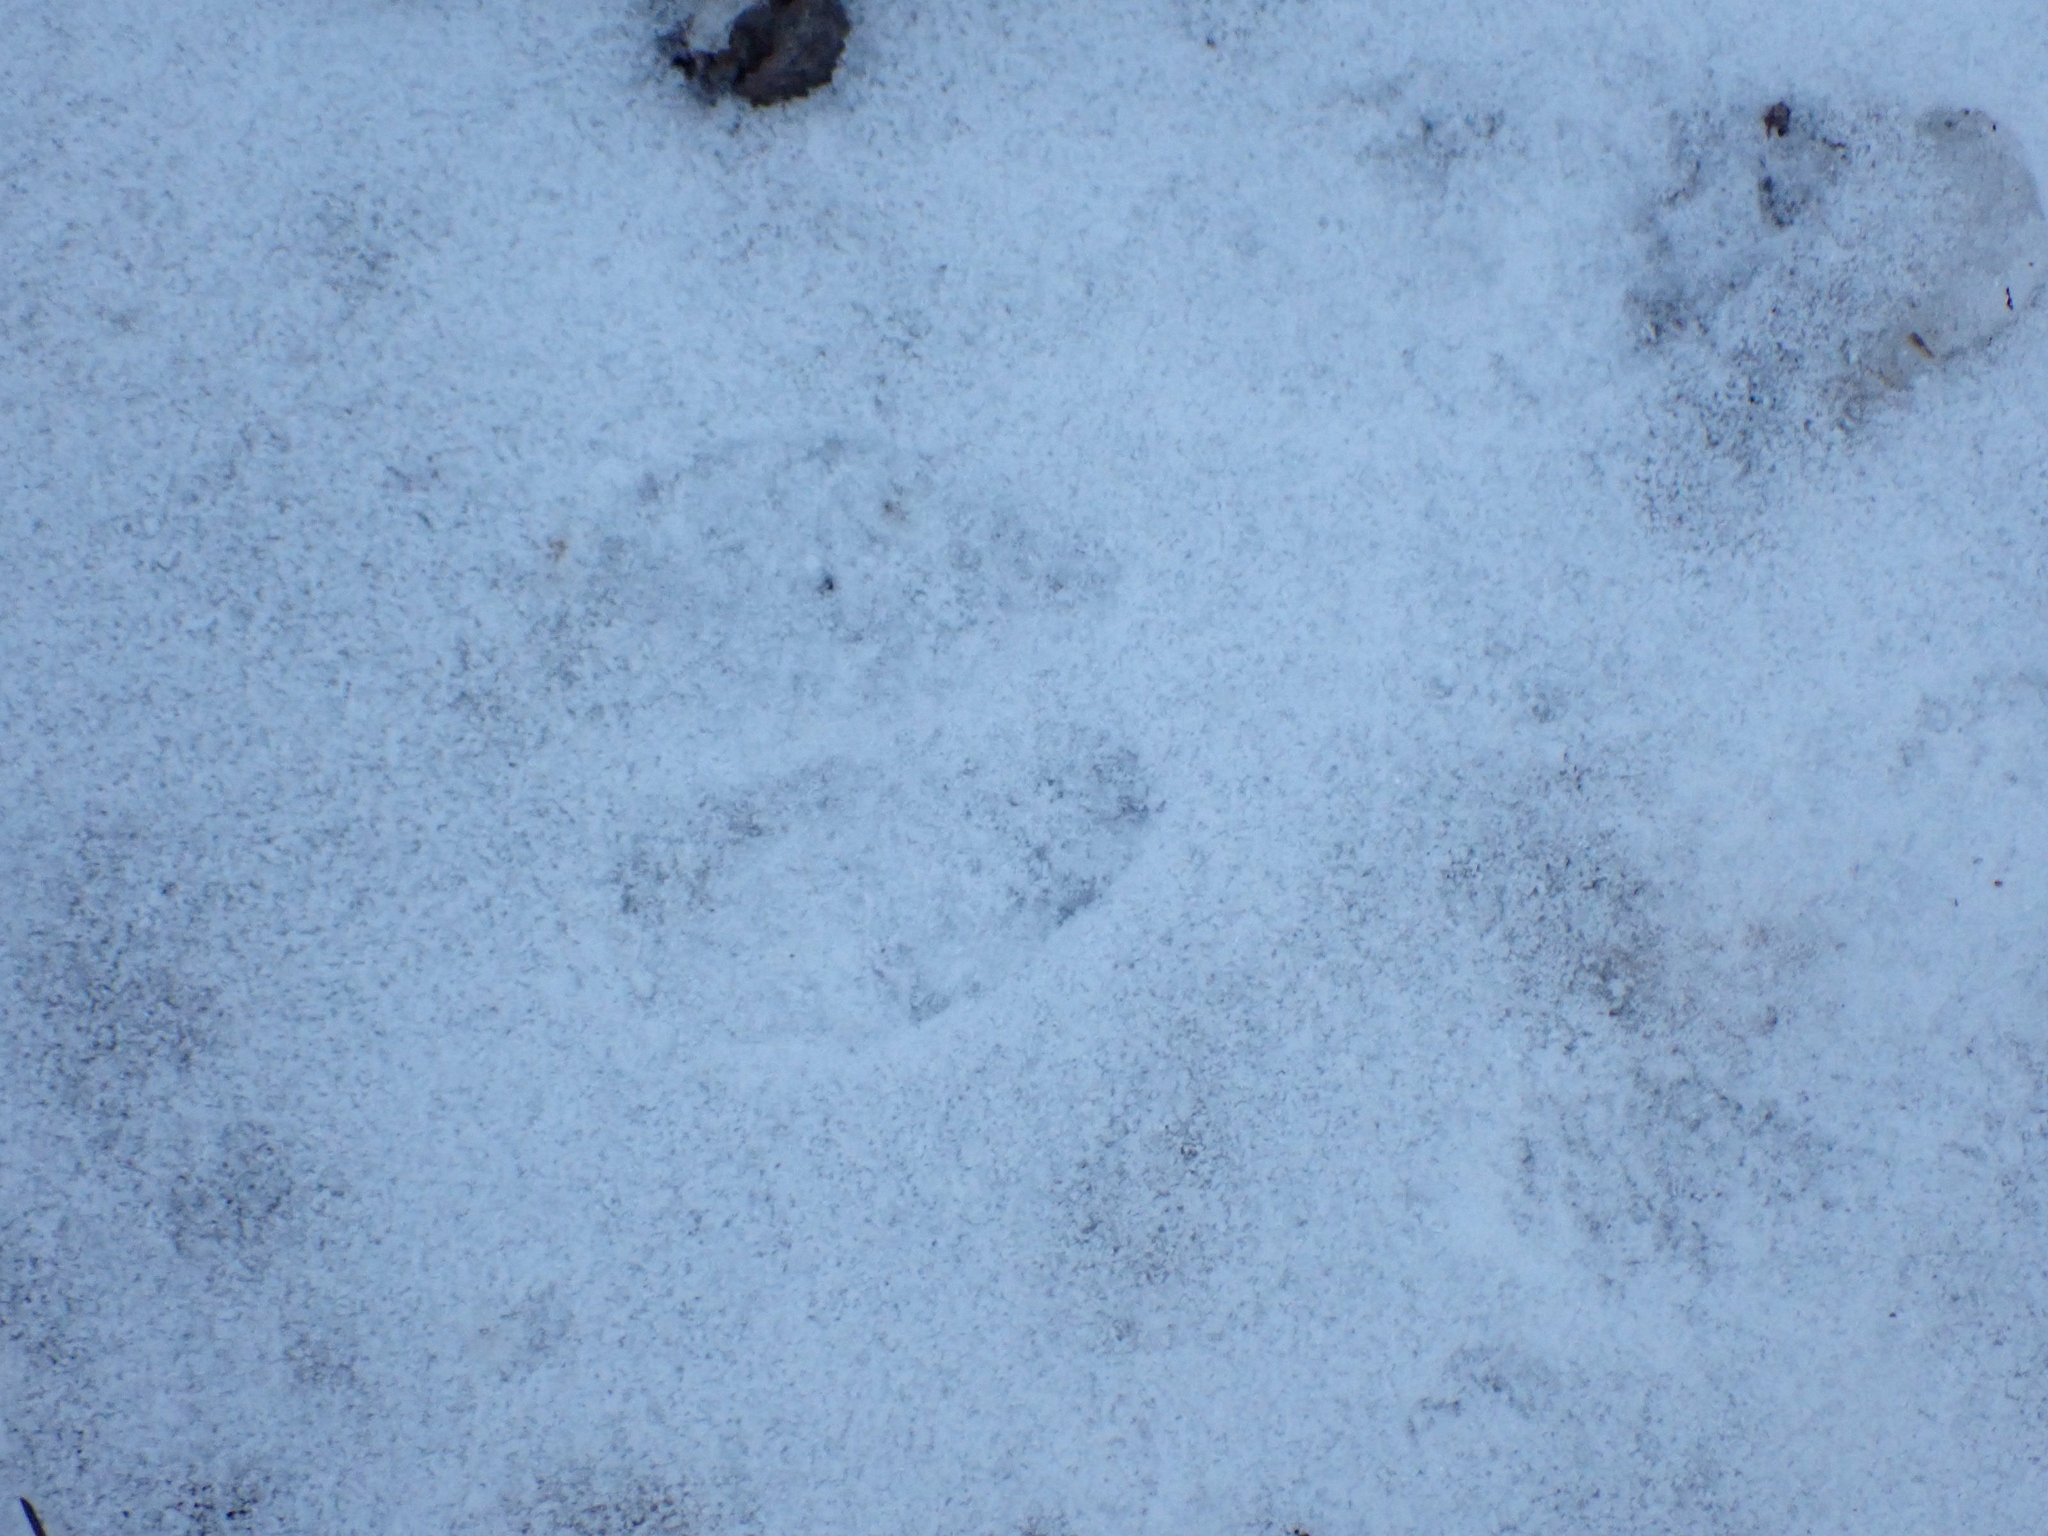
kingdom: Animalia
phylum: Chordata
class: Mammalia
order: Artiodactyla
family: Cervidae
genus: Odocoileus
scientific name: Odocoileus virginianus
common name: White-tailed deer
